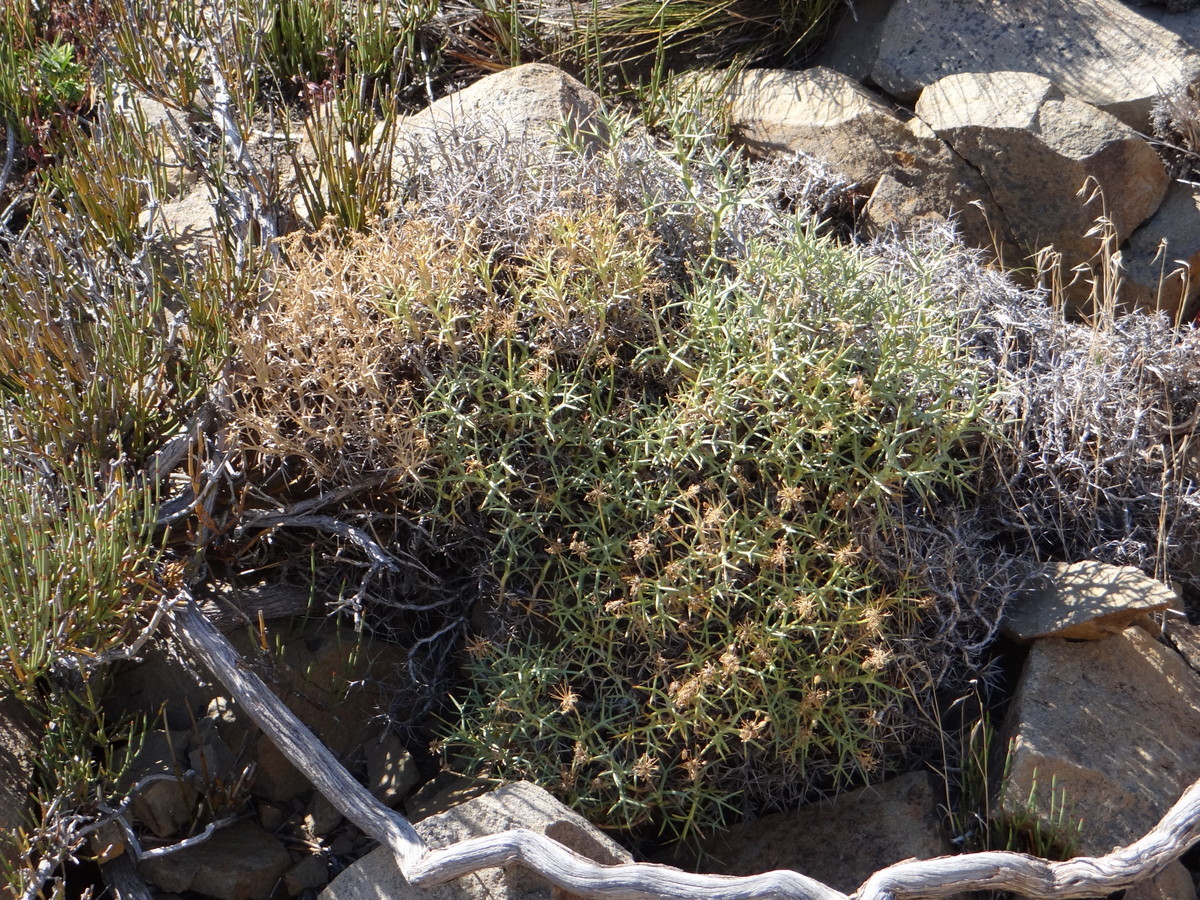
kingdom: Plantae
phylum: Tracheophyta
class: Magnoliopsida
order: Apiales
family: Apiaceae
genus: Azorella
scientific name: Azorella prolifera
